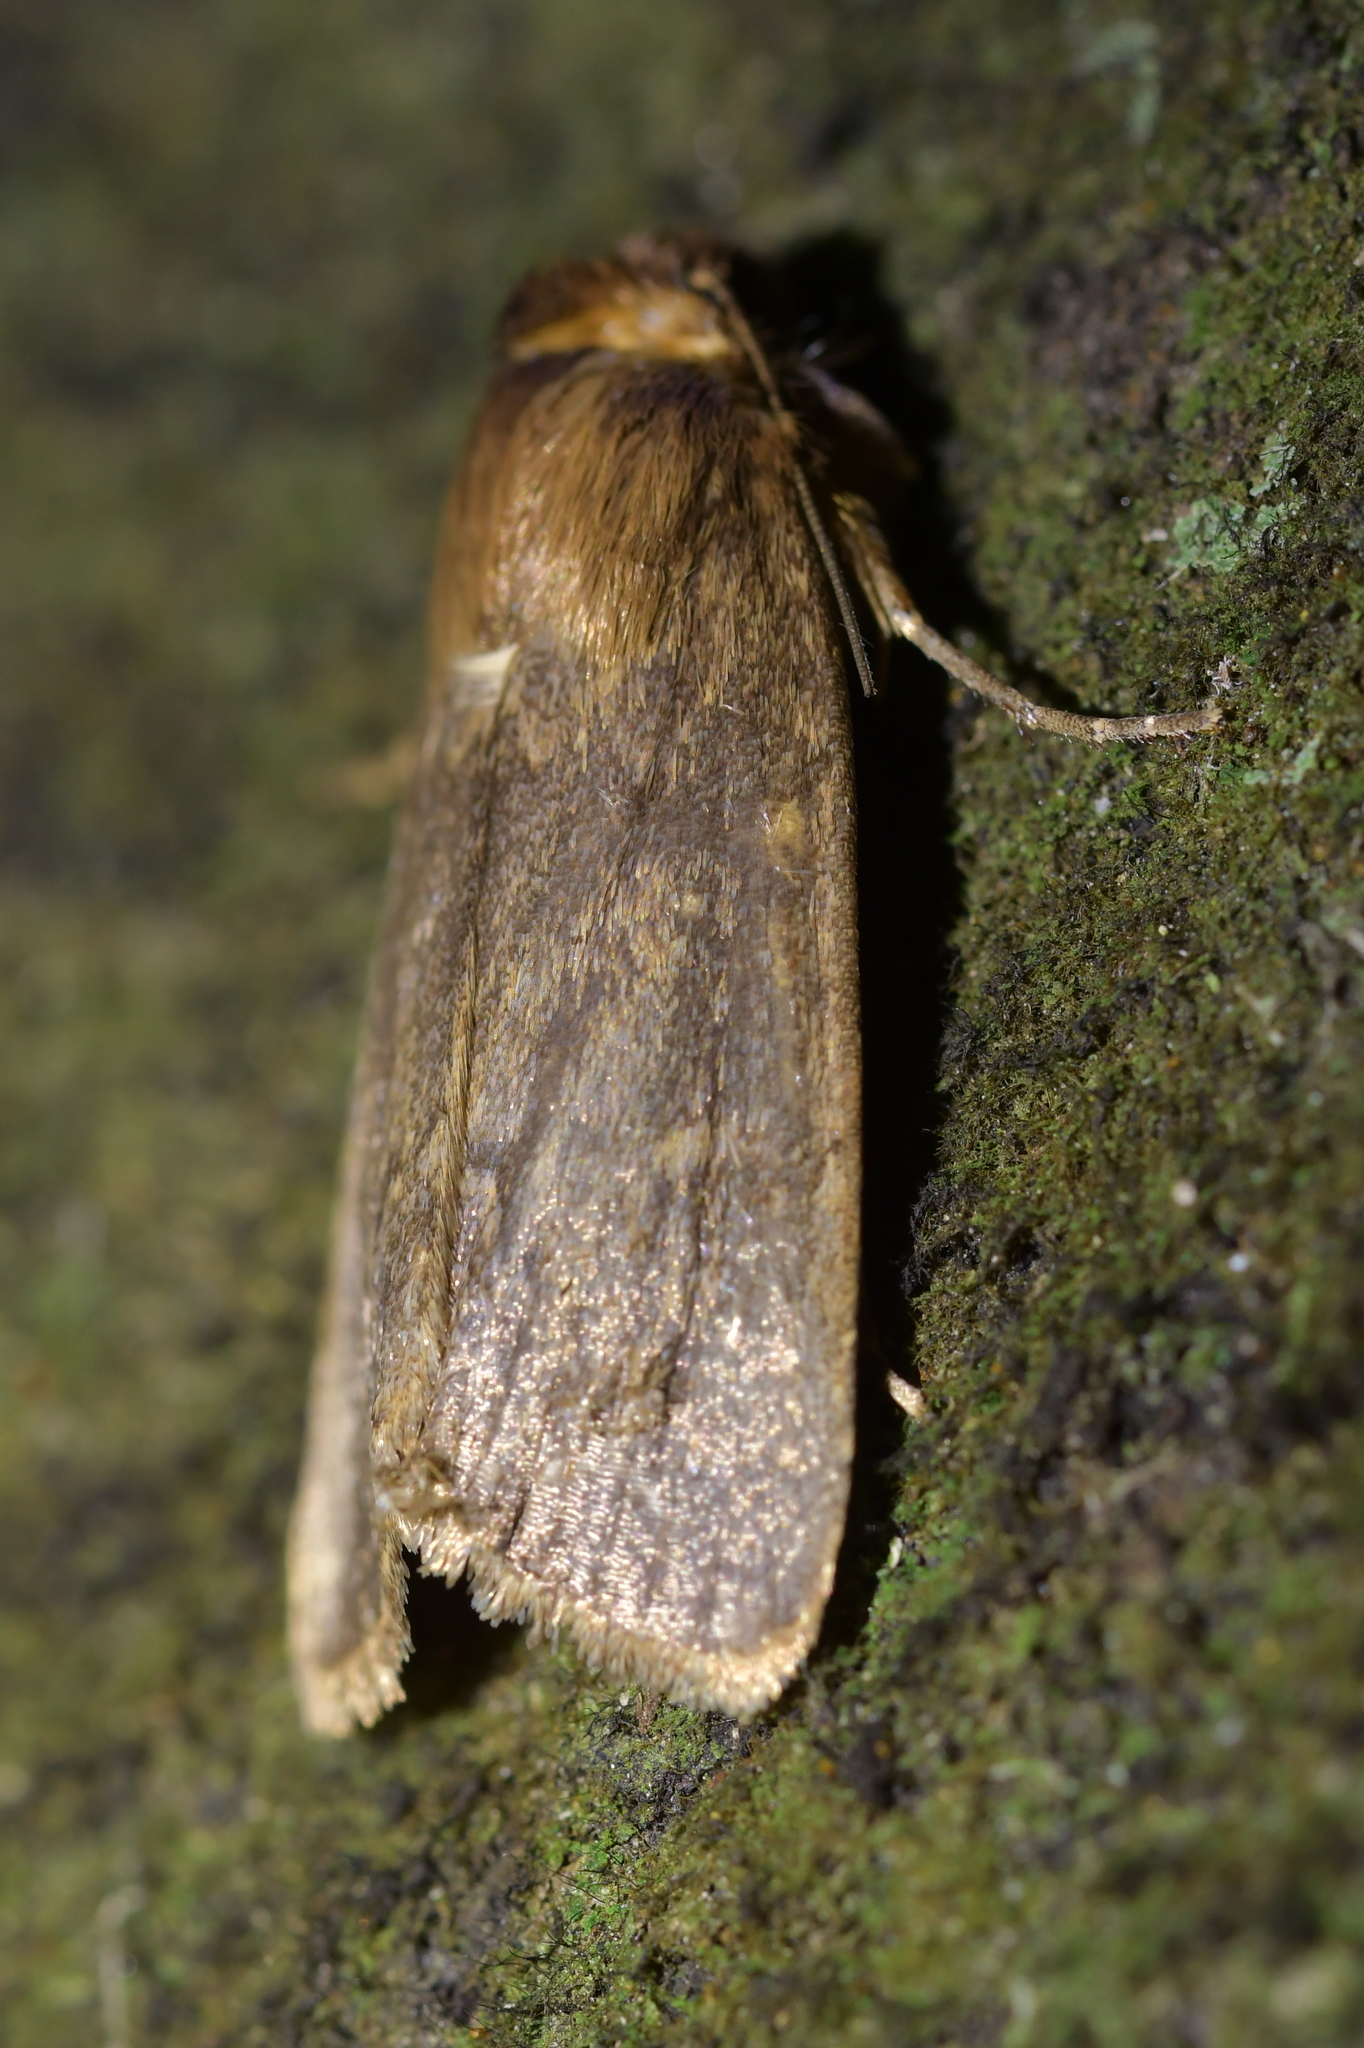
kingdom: Animalia
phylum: Arthropoda
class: Insecta
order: Lepidoptera
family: Noctuidae
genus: Bityla
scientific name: Bityla defigurata
